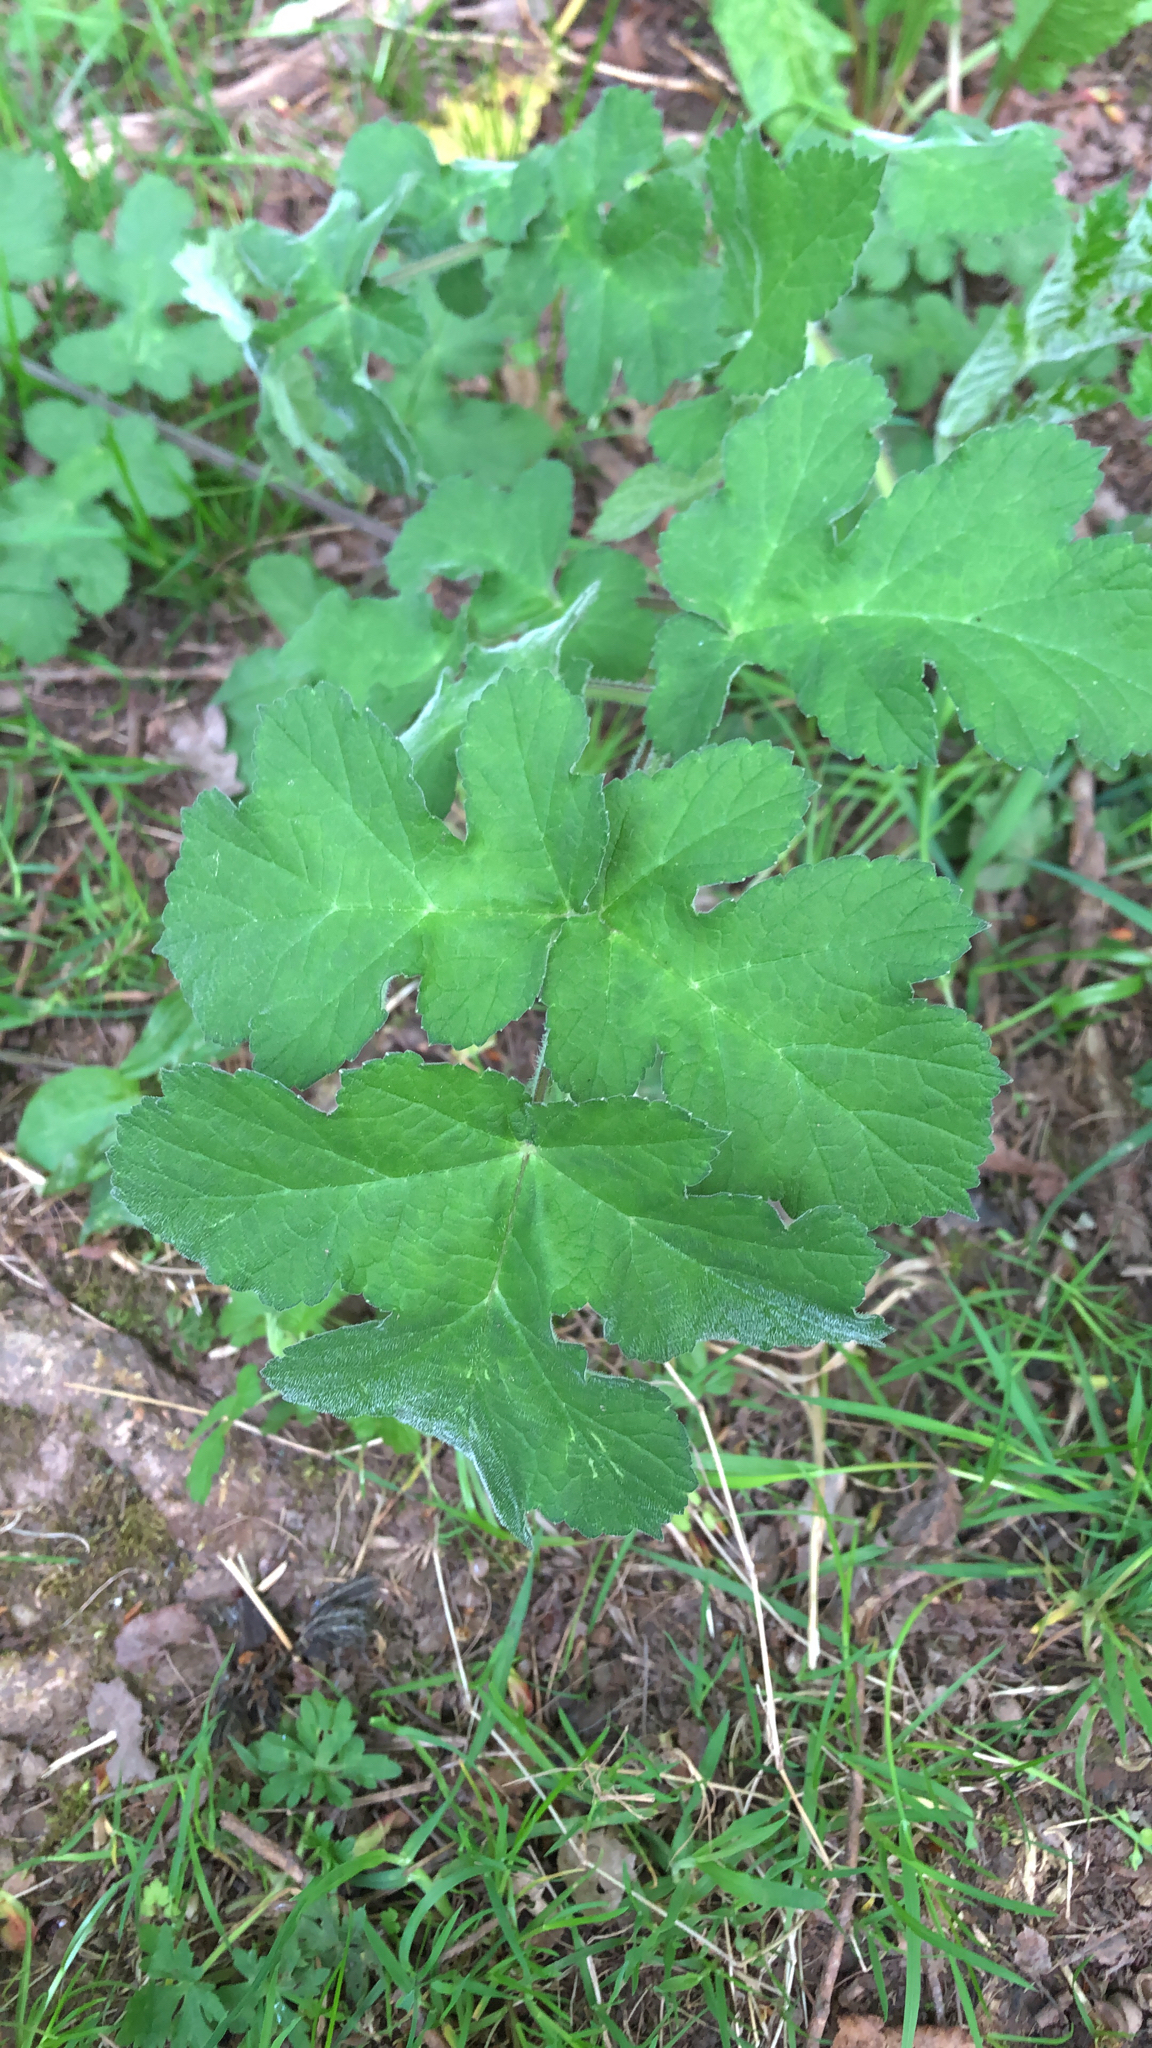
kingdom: Plantae
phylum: Tracheophyta
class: Magnoliopsida
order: Apiales
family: Apiaceae
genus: Heracleum
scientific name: Heracleum sphondylium
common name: Hogweed
